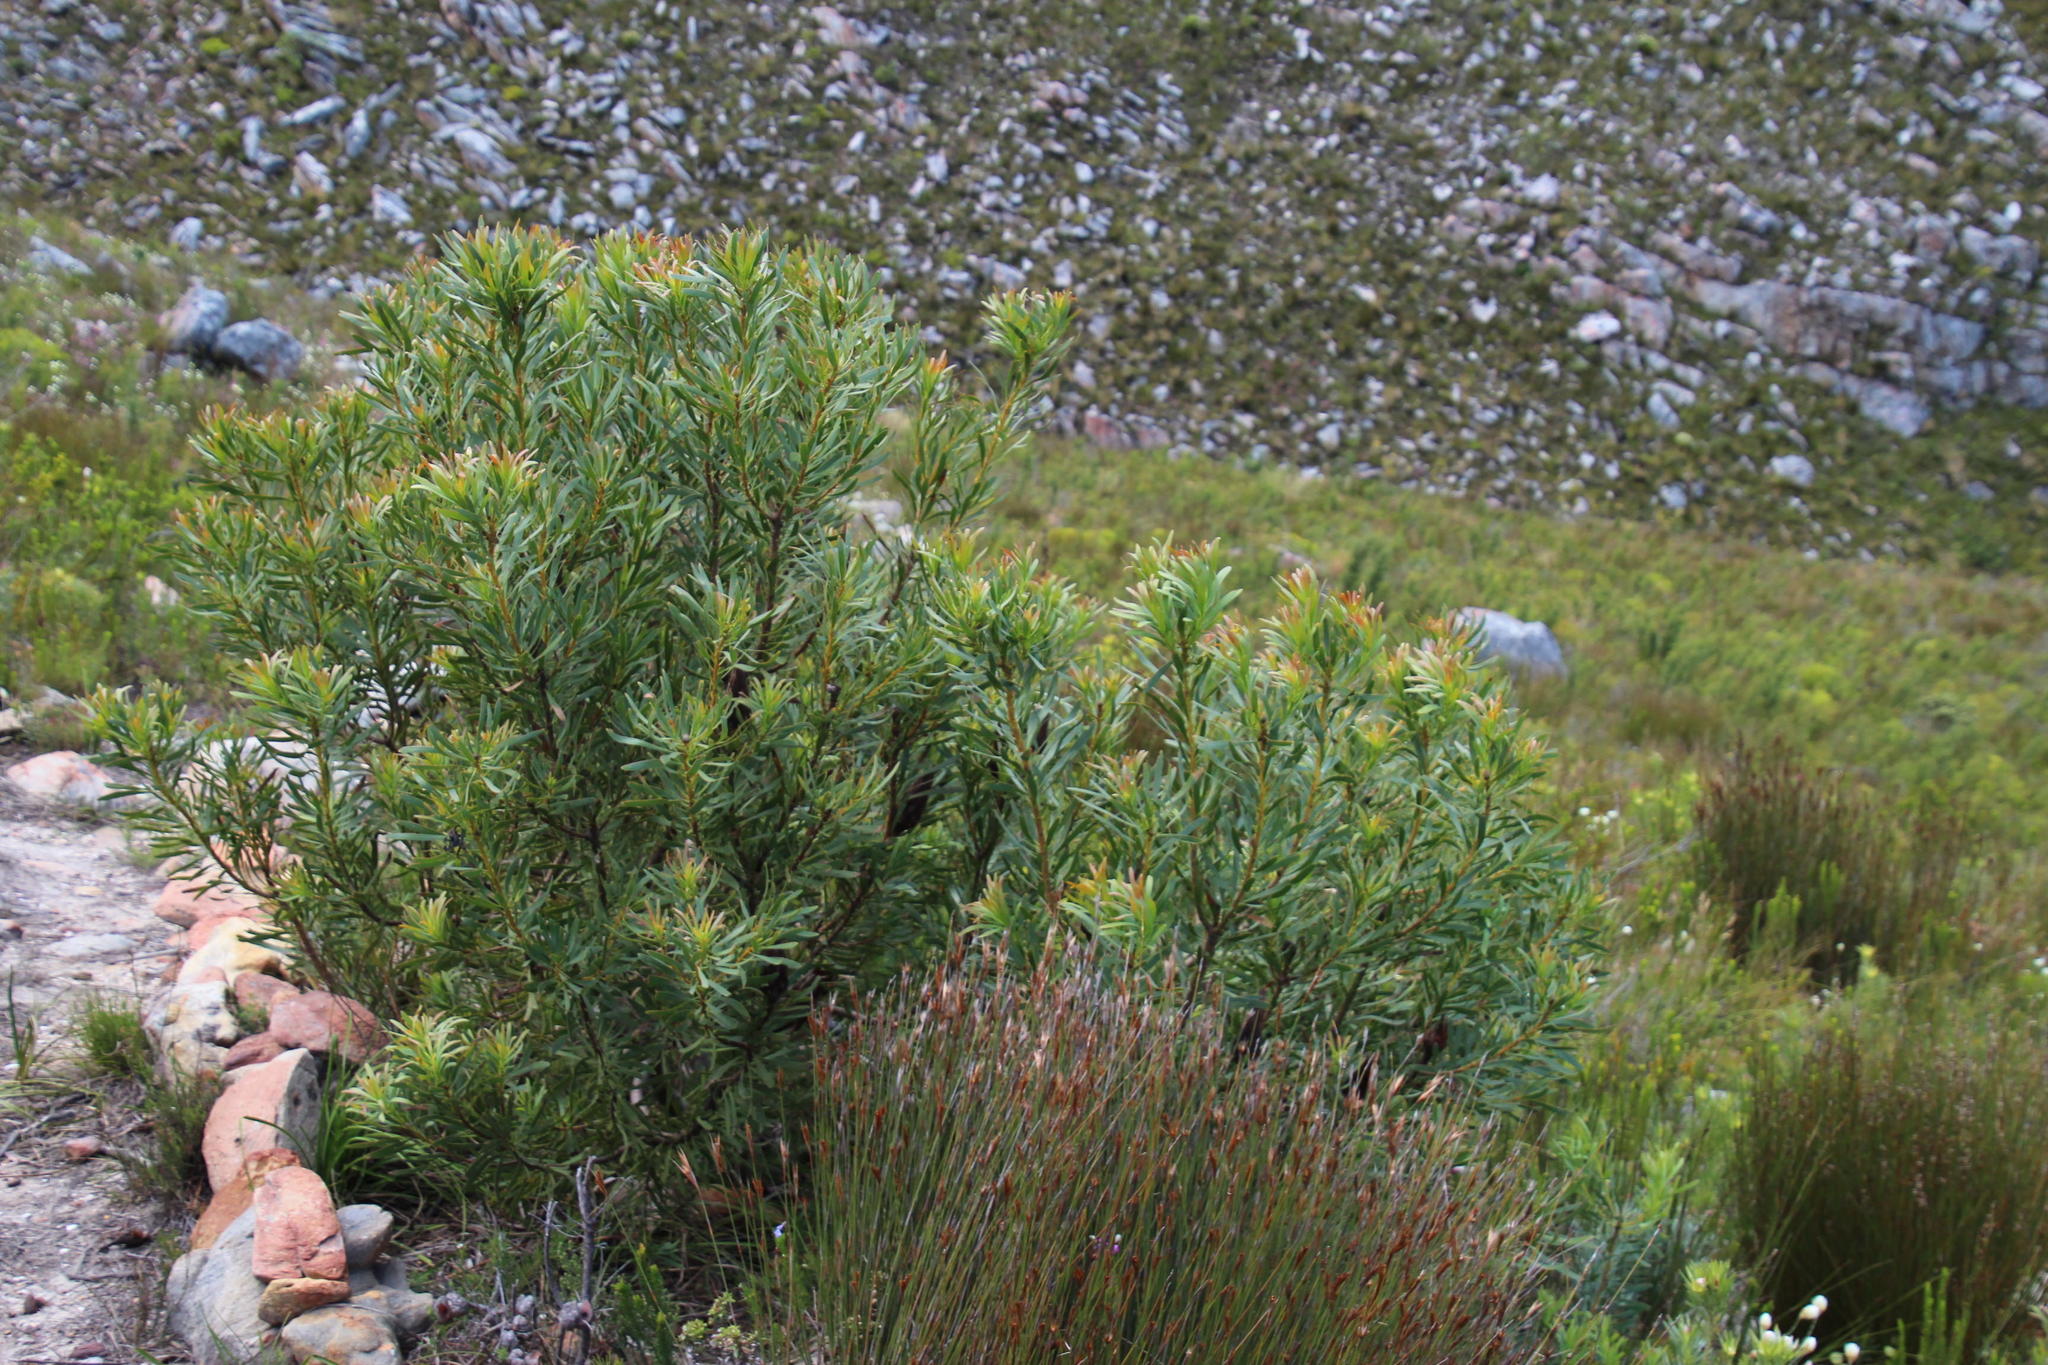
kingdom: Plantae
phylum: Tracheophyta
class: Magnoliopsida
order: Proteales
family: Proteaceae
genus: Protea
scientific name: Protea repens
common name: Sugarbush
